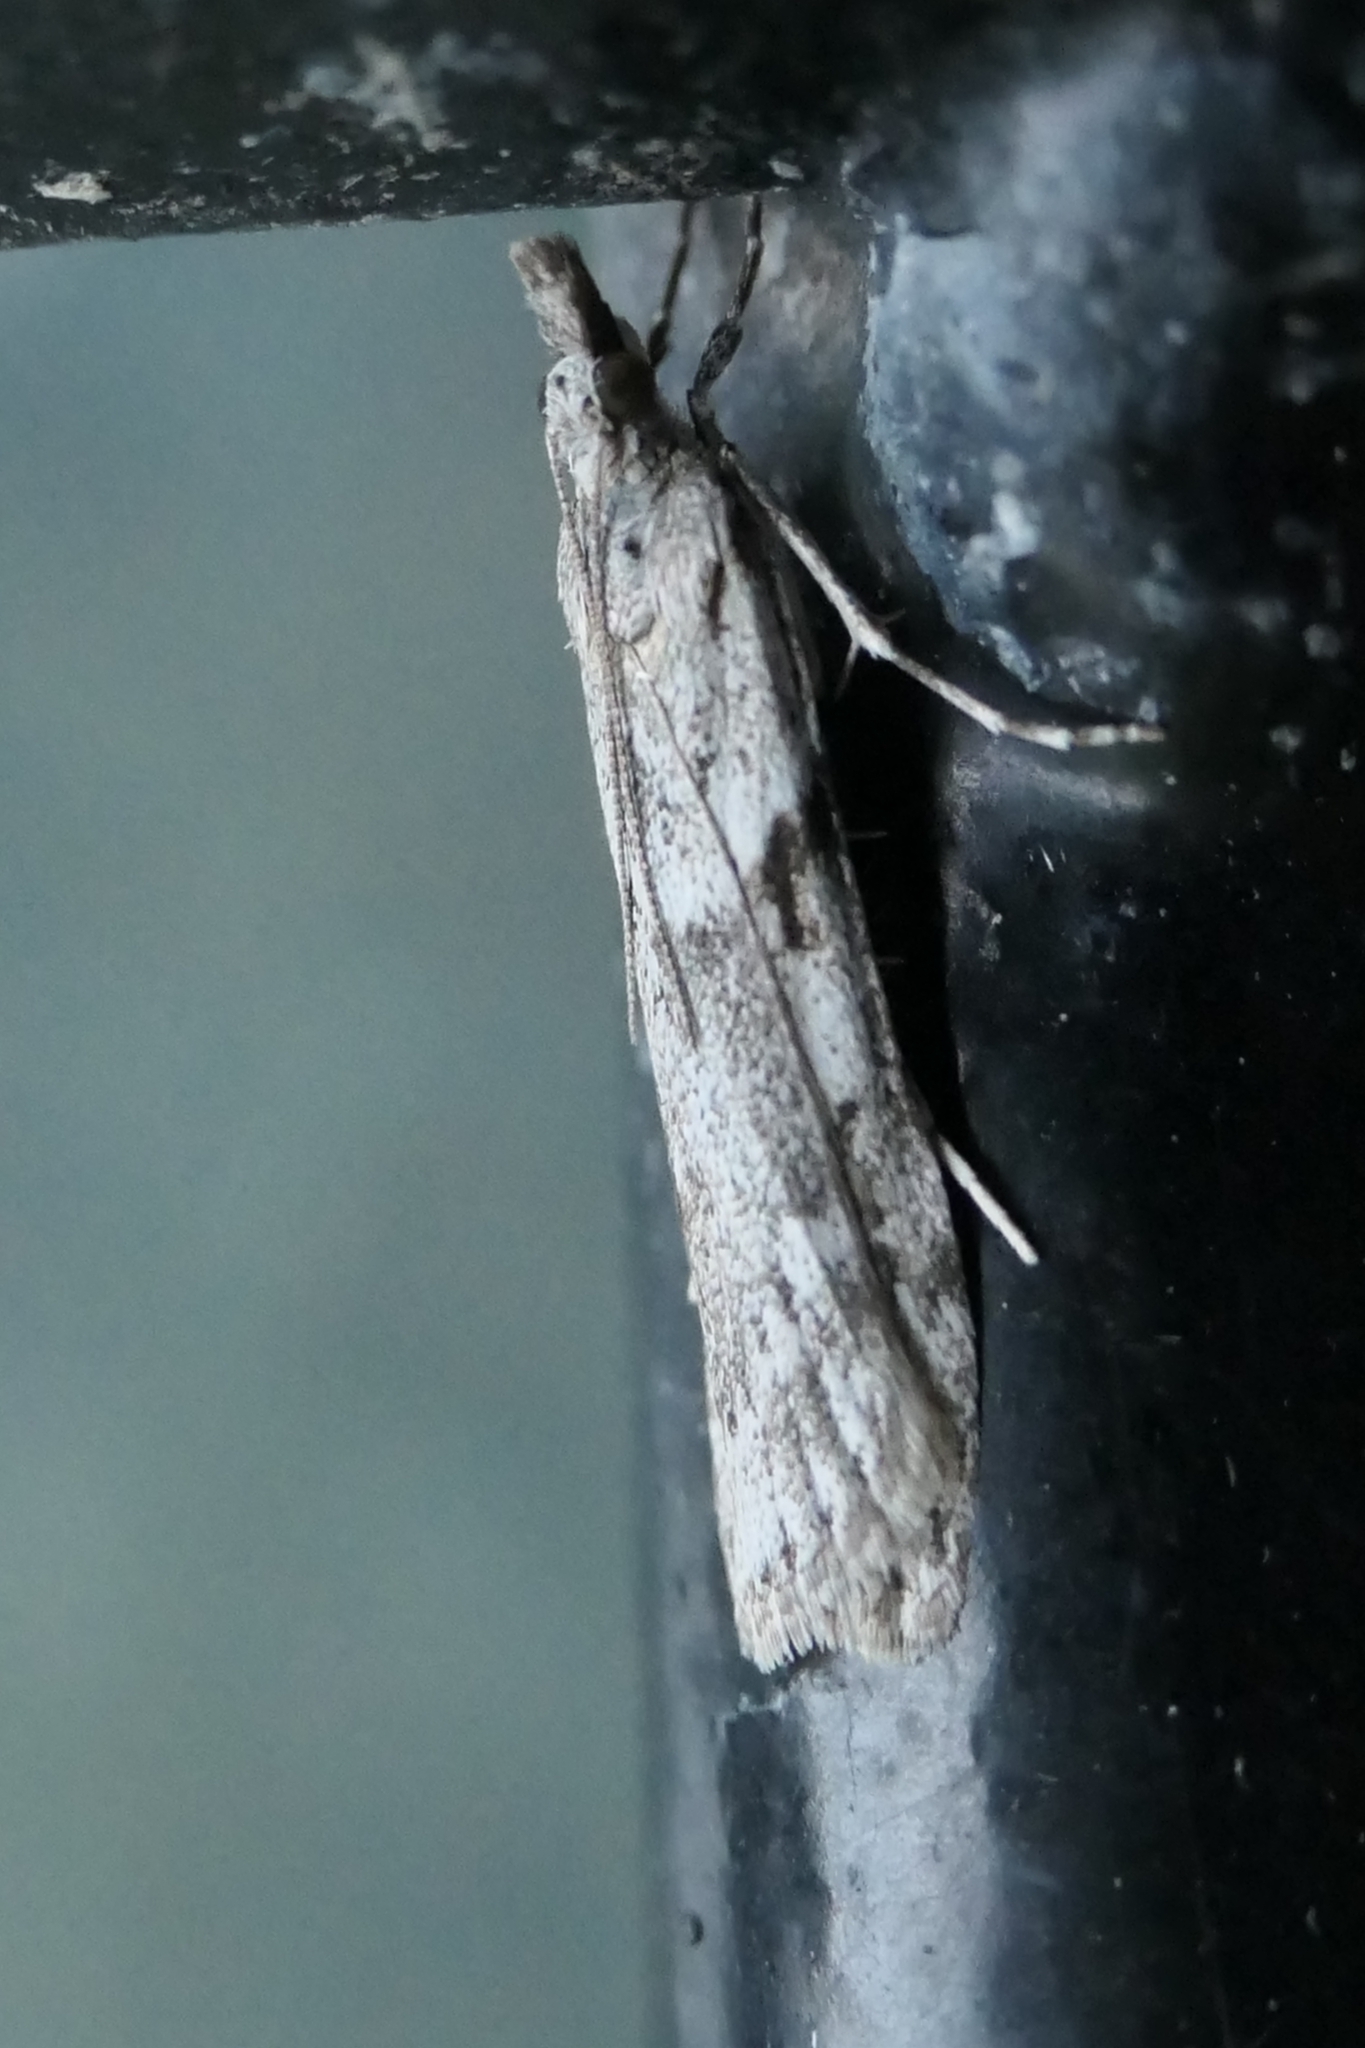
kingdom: Animalia
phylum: Arthropoda
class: Insecta
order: Lepidoptera
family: Crambidae
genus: Scoparia
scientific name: Scoparia halopis
